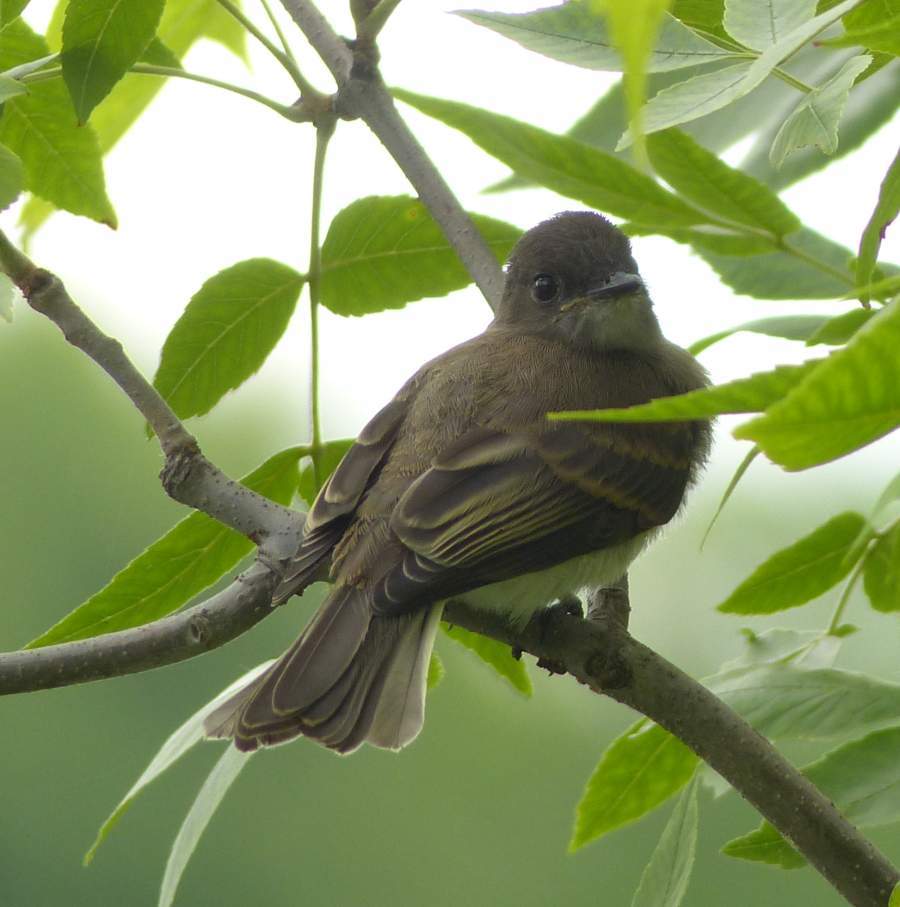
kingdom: Animalia
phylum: Chordata
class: Aves
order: Passeriformes
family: Tyrannidae
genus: Sayornis
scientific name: Sayornis phoebe
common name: Eastern phoebe
